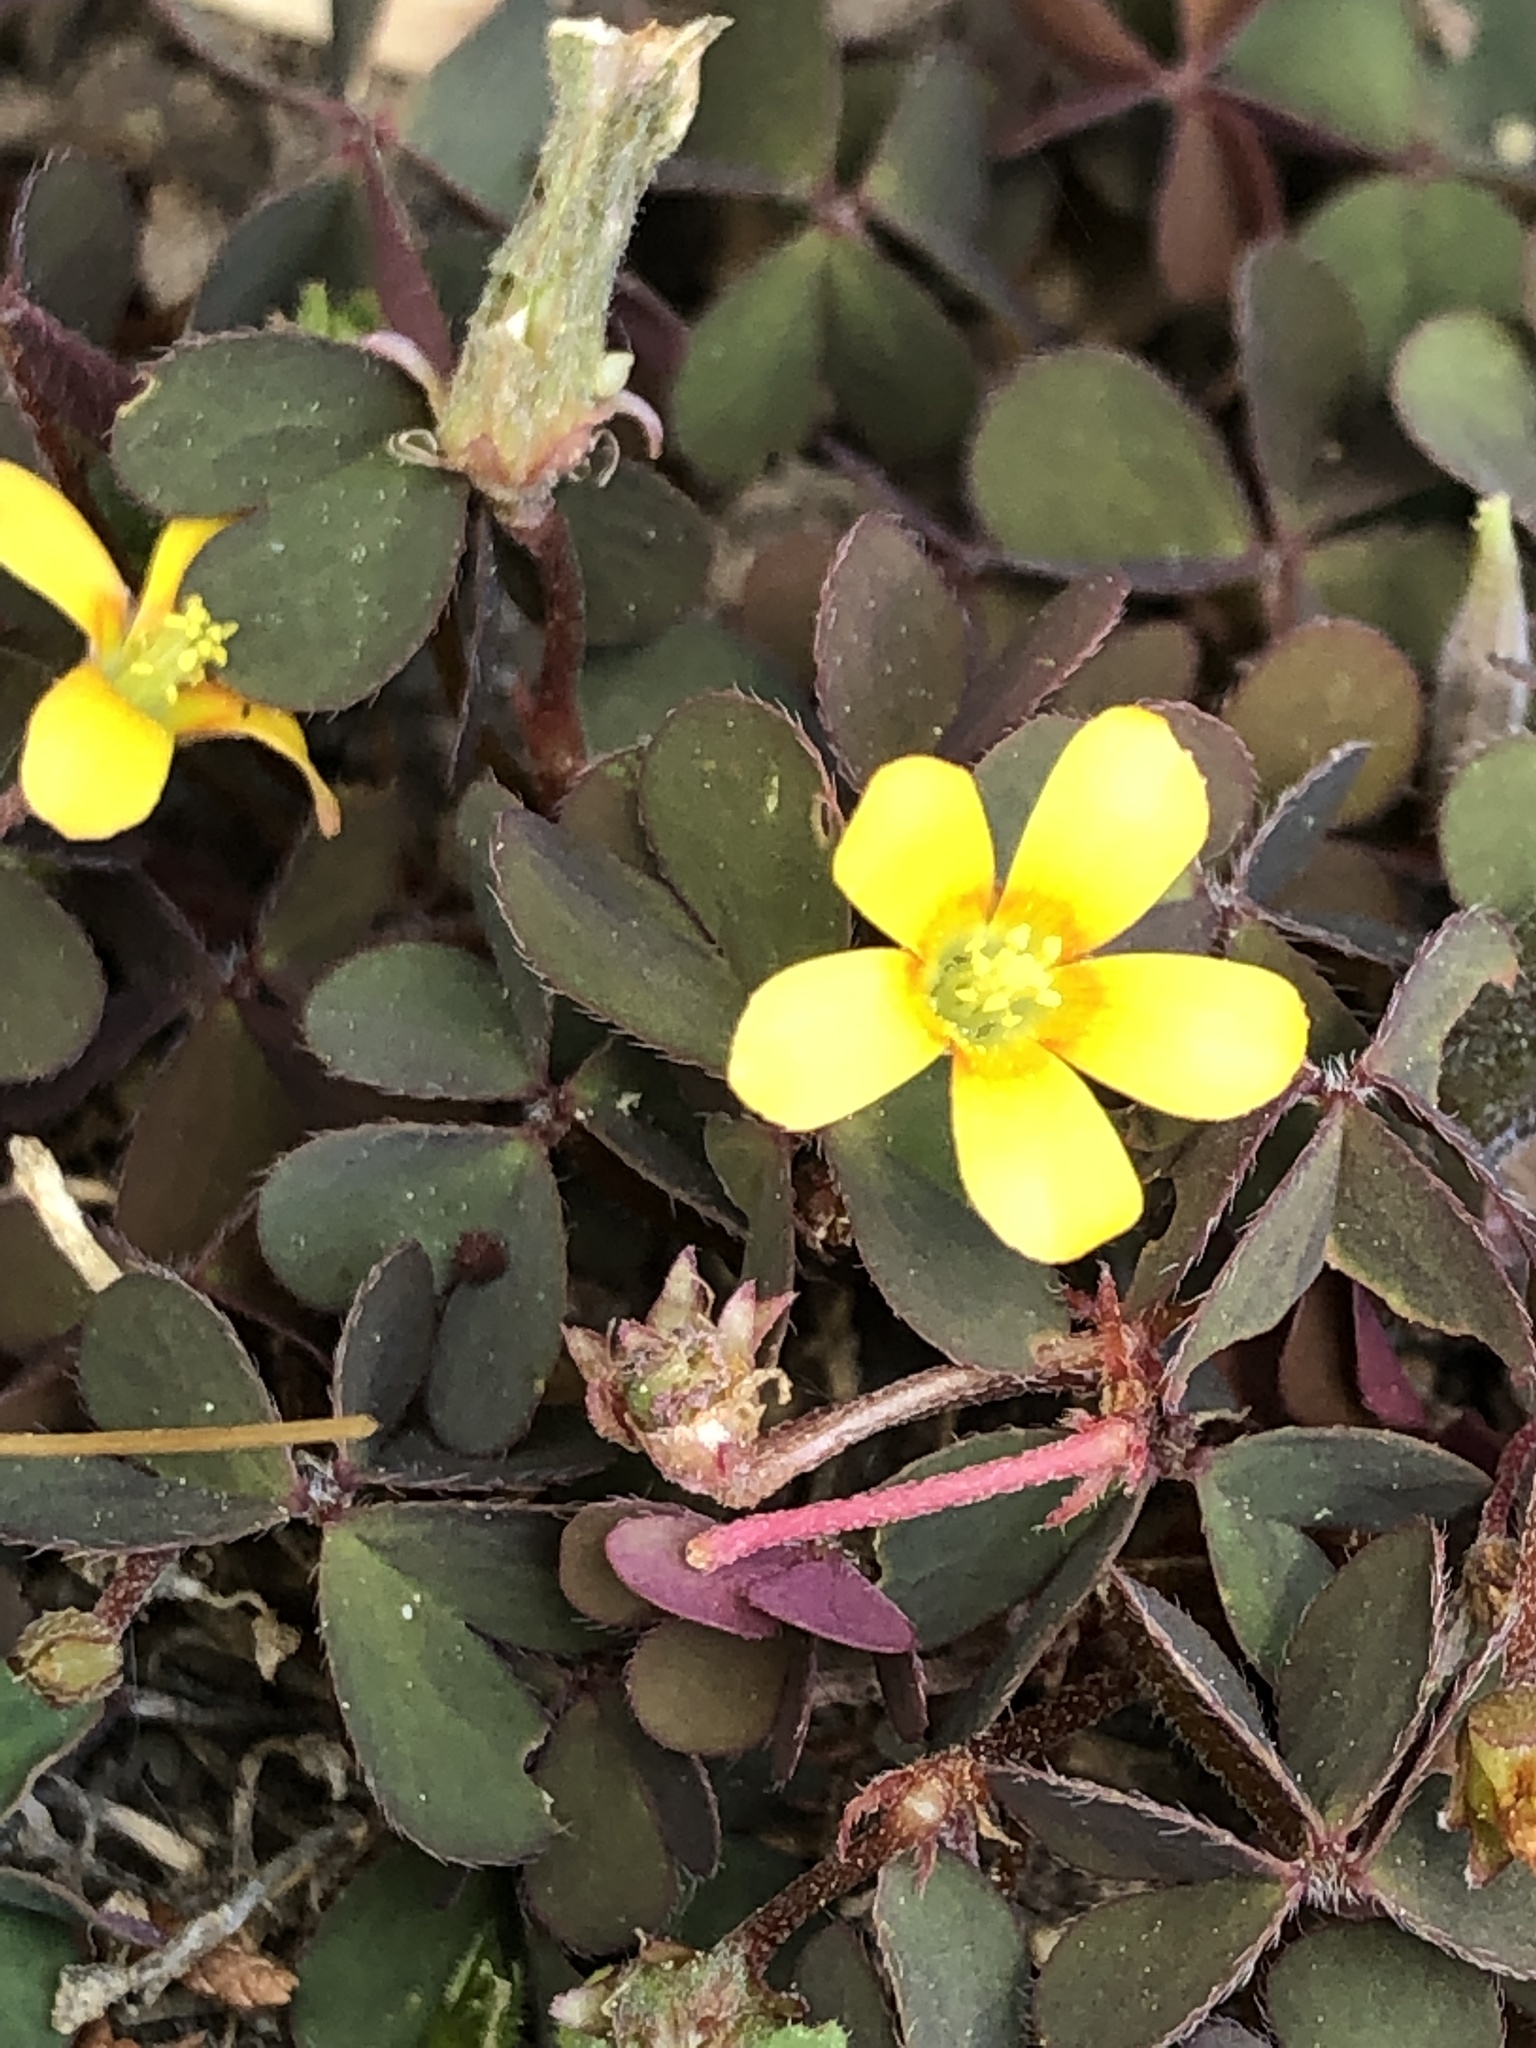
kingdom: Plantae
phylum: Tracheophyta
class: Magnoliopsida
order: Oxalidales
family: Oxalidaceae
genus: Oxalis
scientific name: Oxalis corniculata
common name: Procumbent yellow-sorrel
